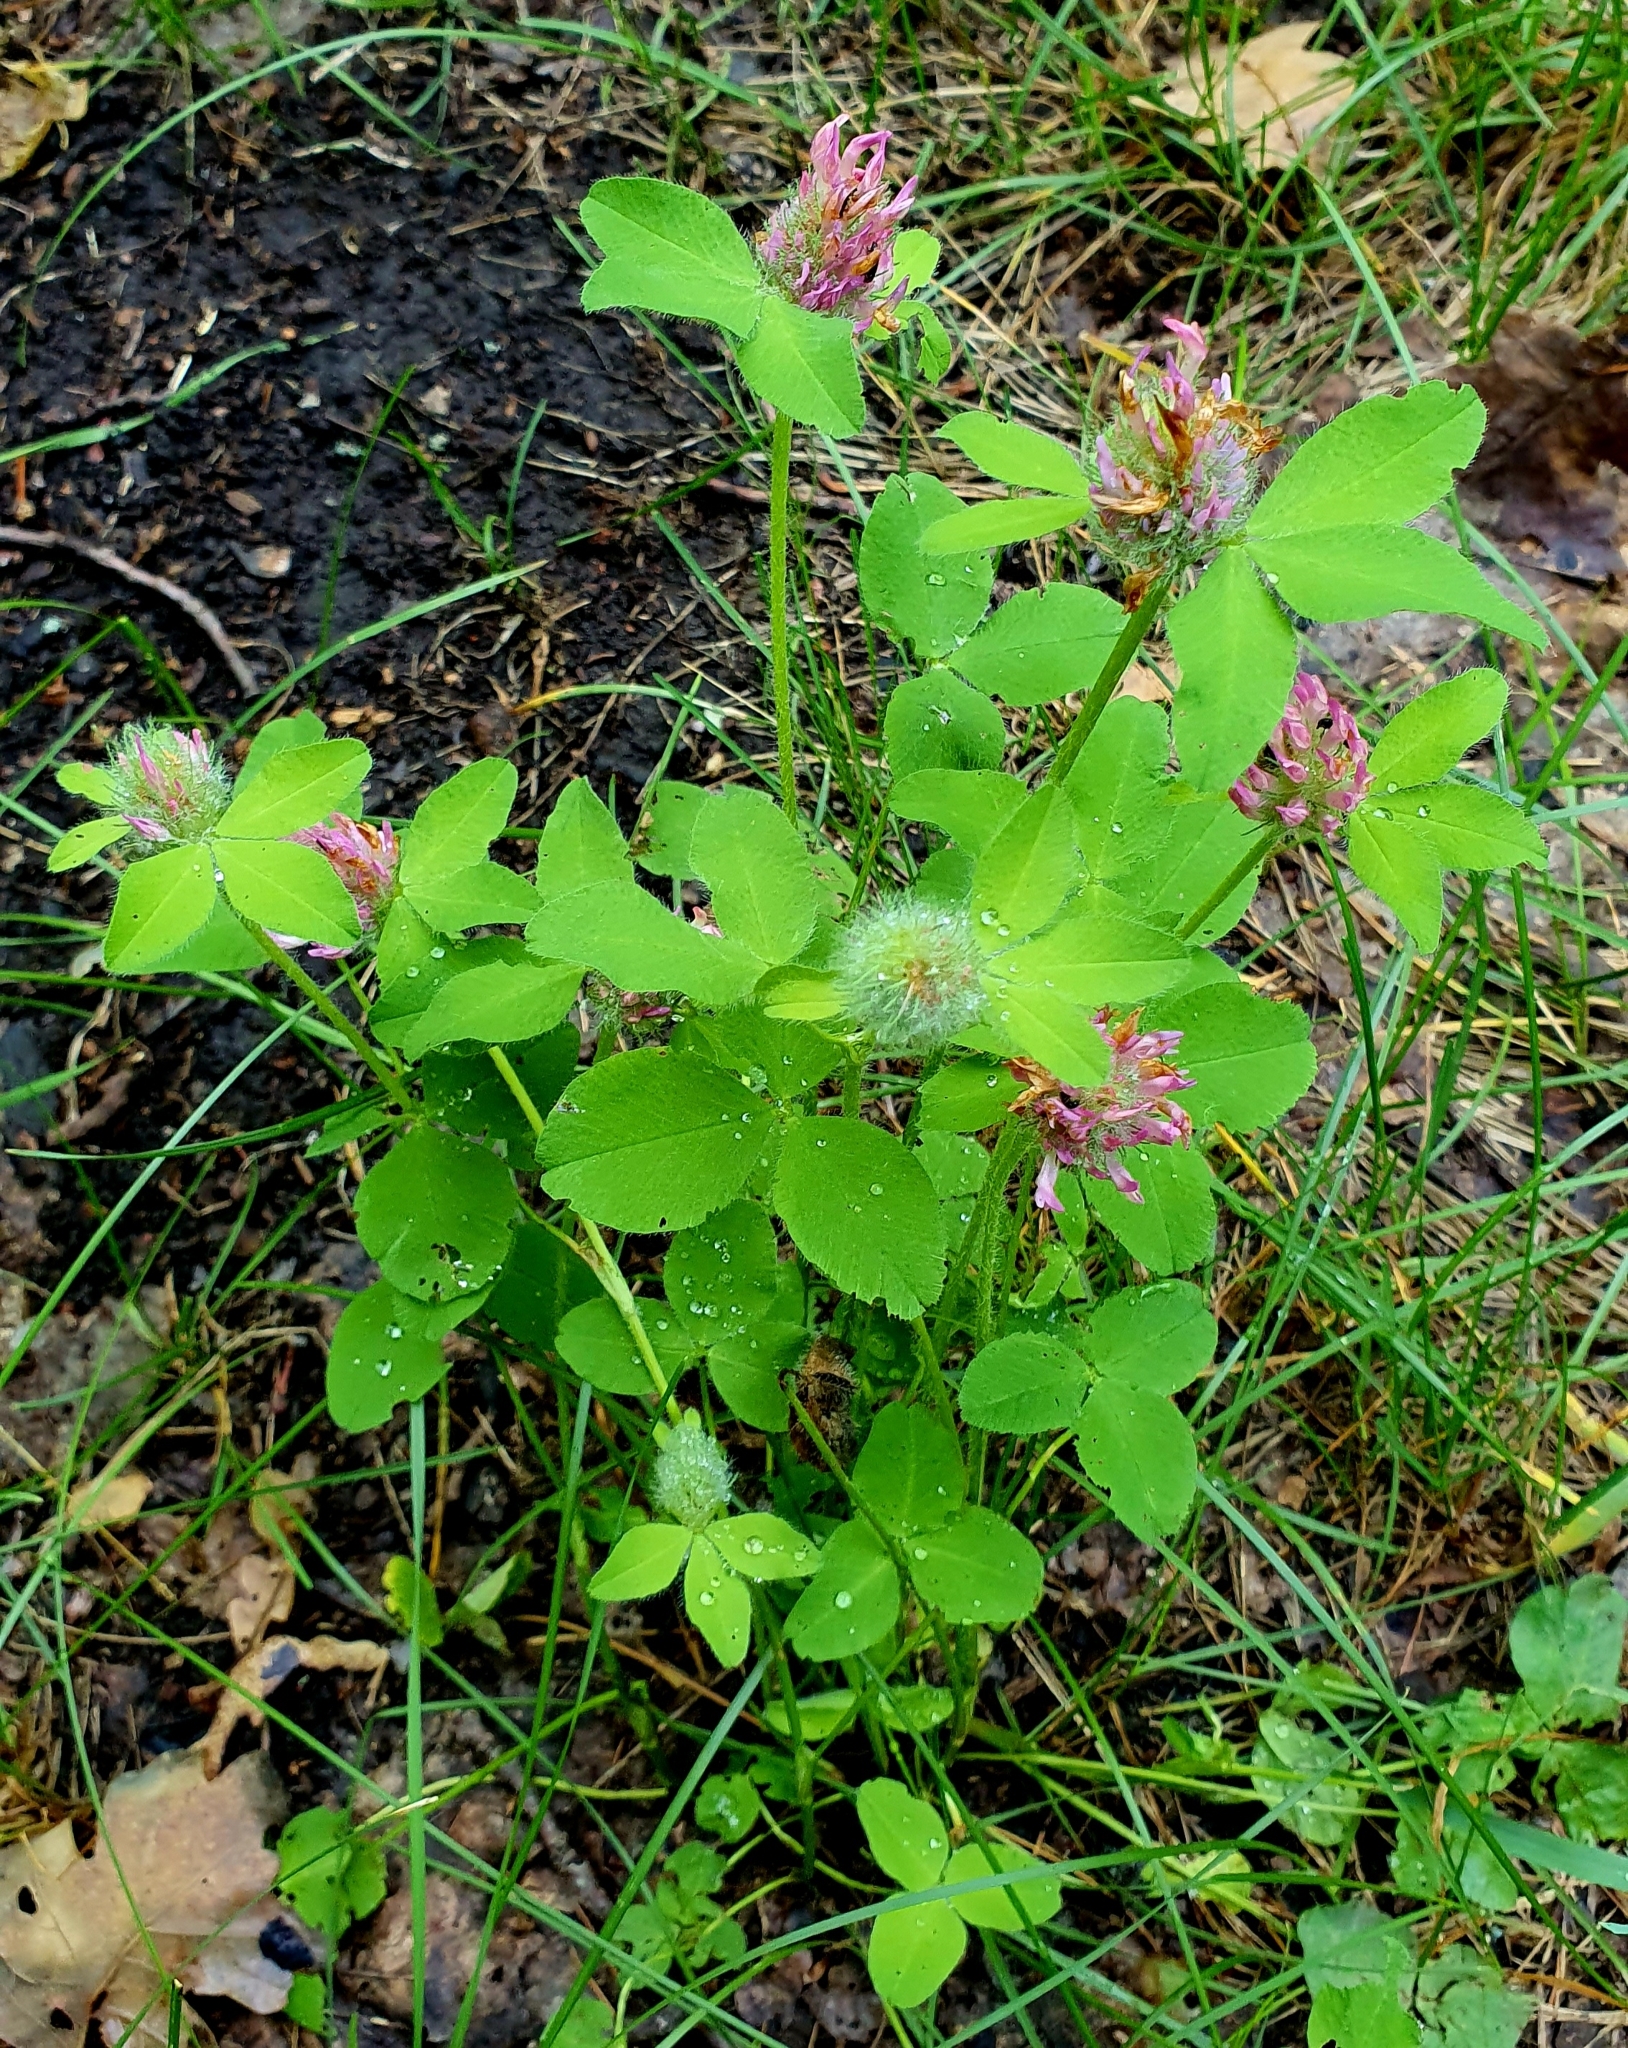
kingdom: Plantae
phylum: Tracheophyta
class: Magnoliopsida
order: Fabales
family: Fabaceae
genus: Trifolium
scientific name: Trifolium pratense
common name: Red clover
